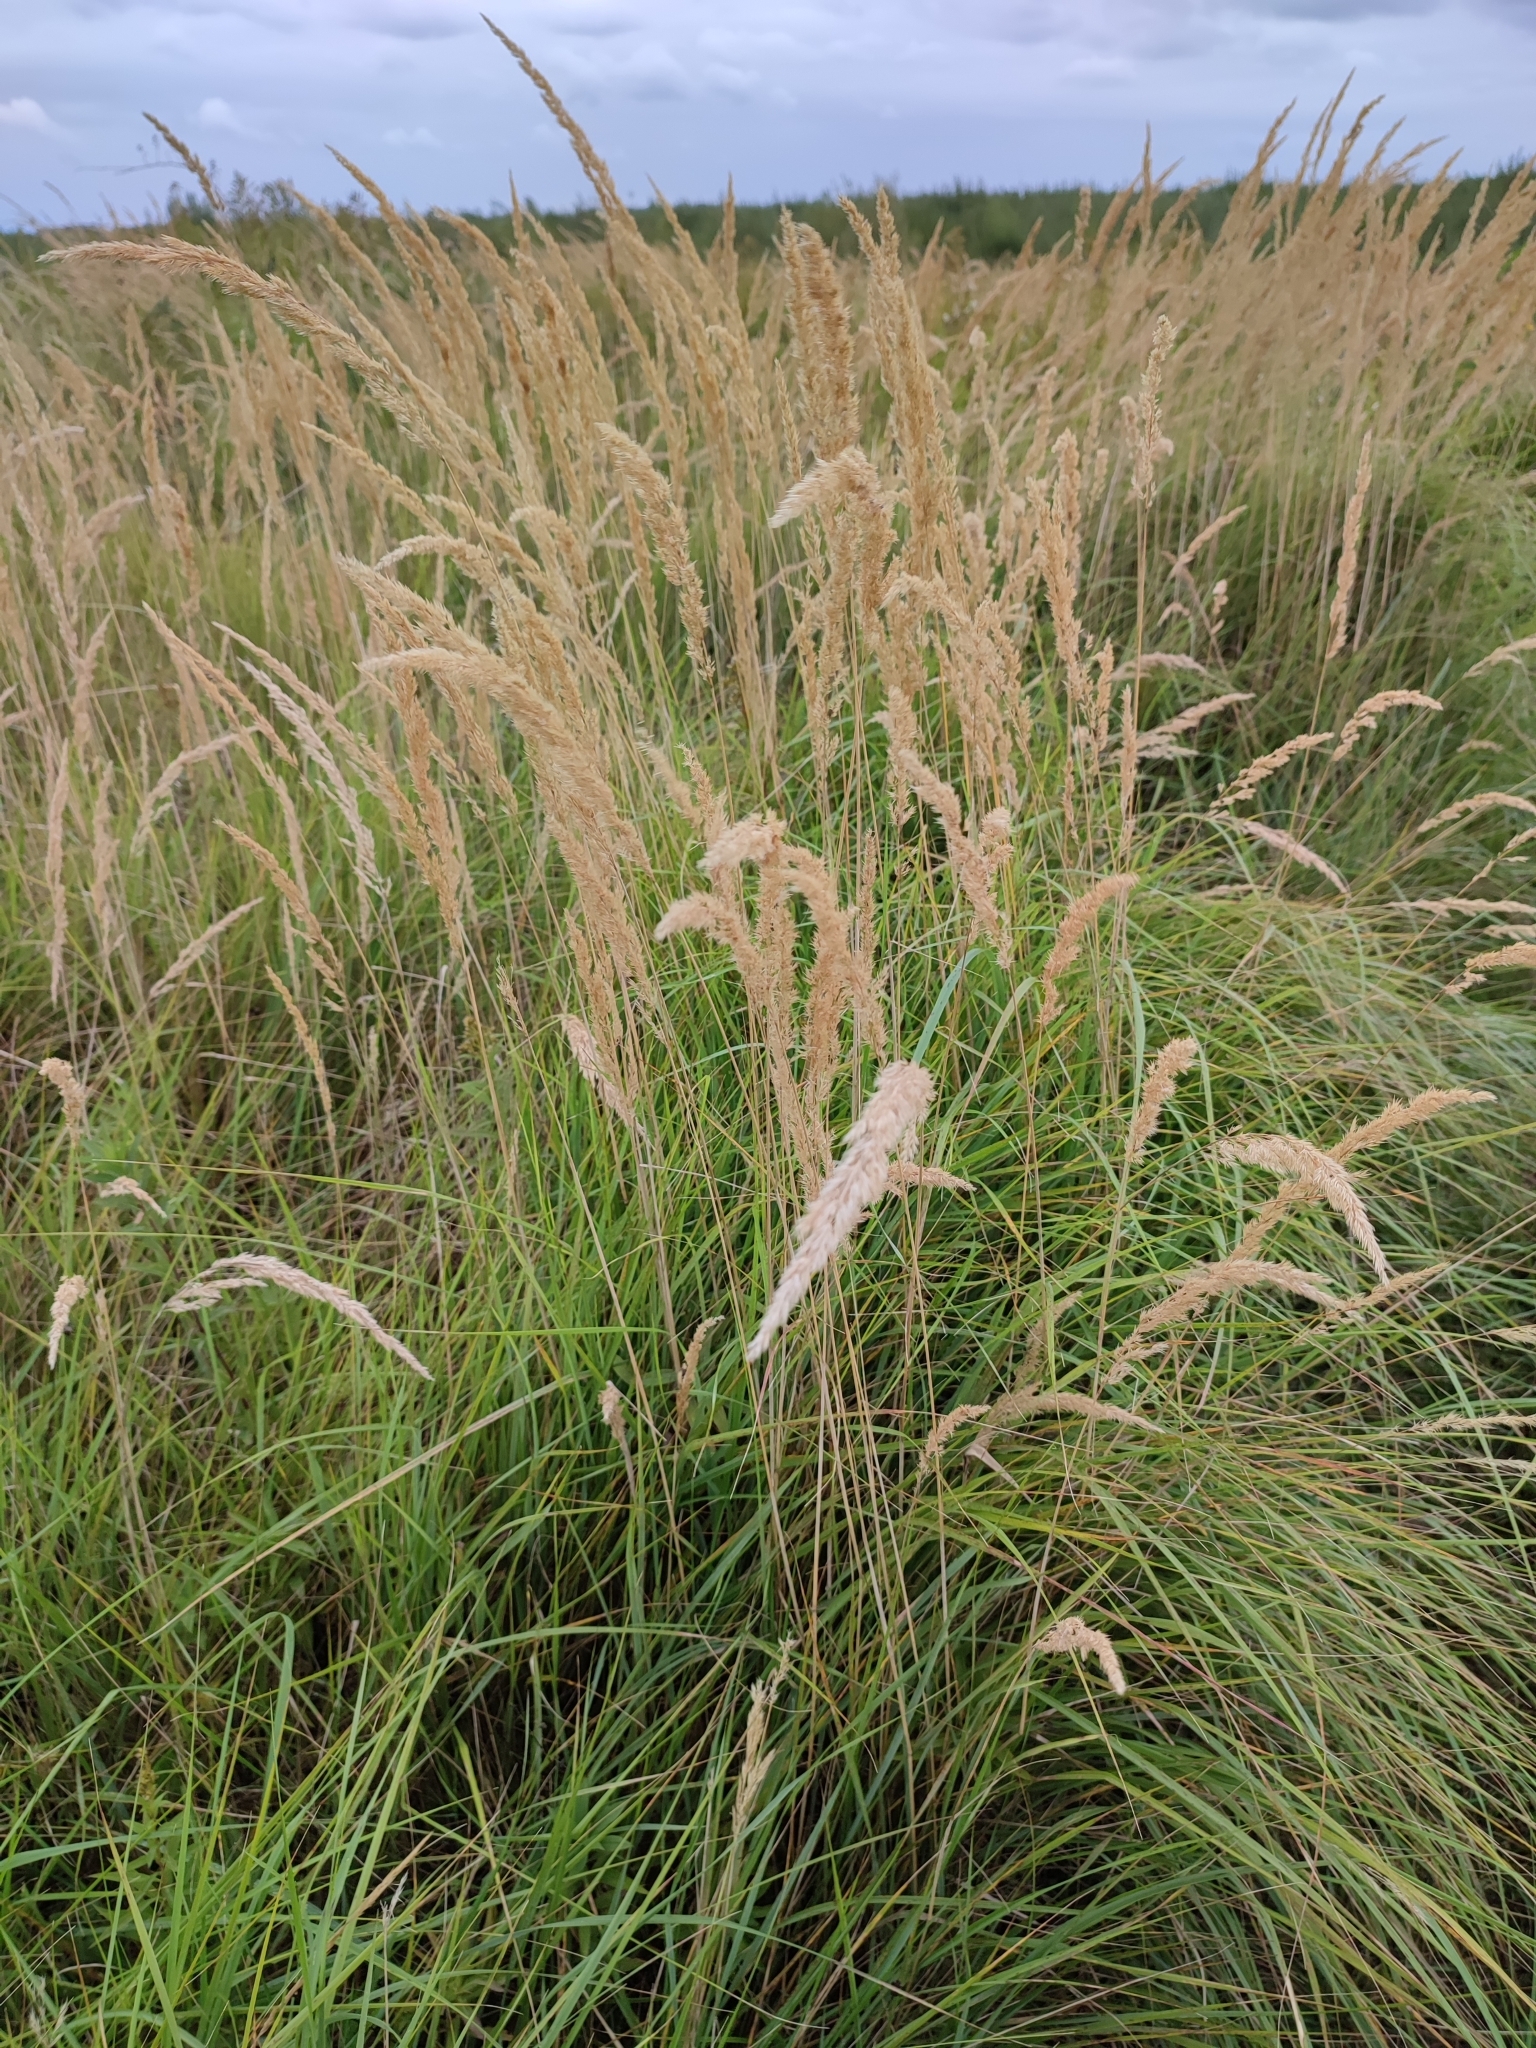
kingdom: Plantae
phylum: Tracheophyta
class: Liliopsida
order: Poales
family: Poaceae
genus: Calamagrostis
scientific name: Calamagrostis epigejos
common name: Wood small-reed
